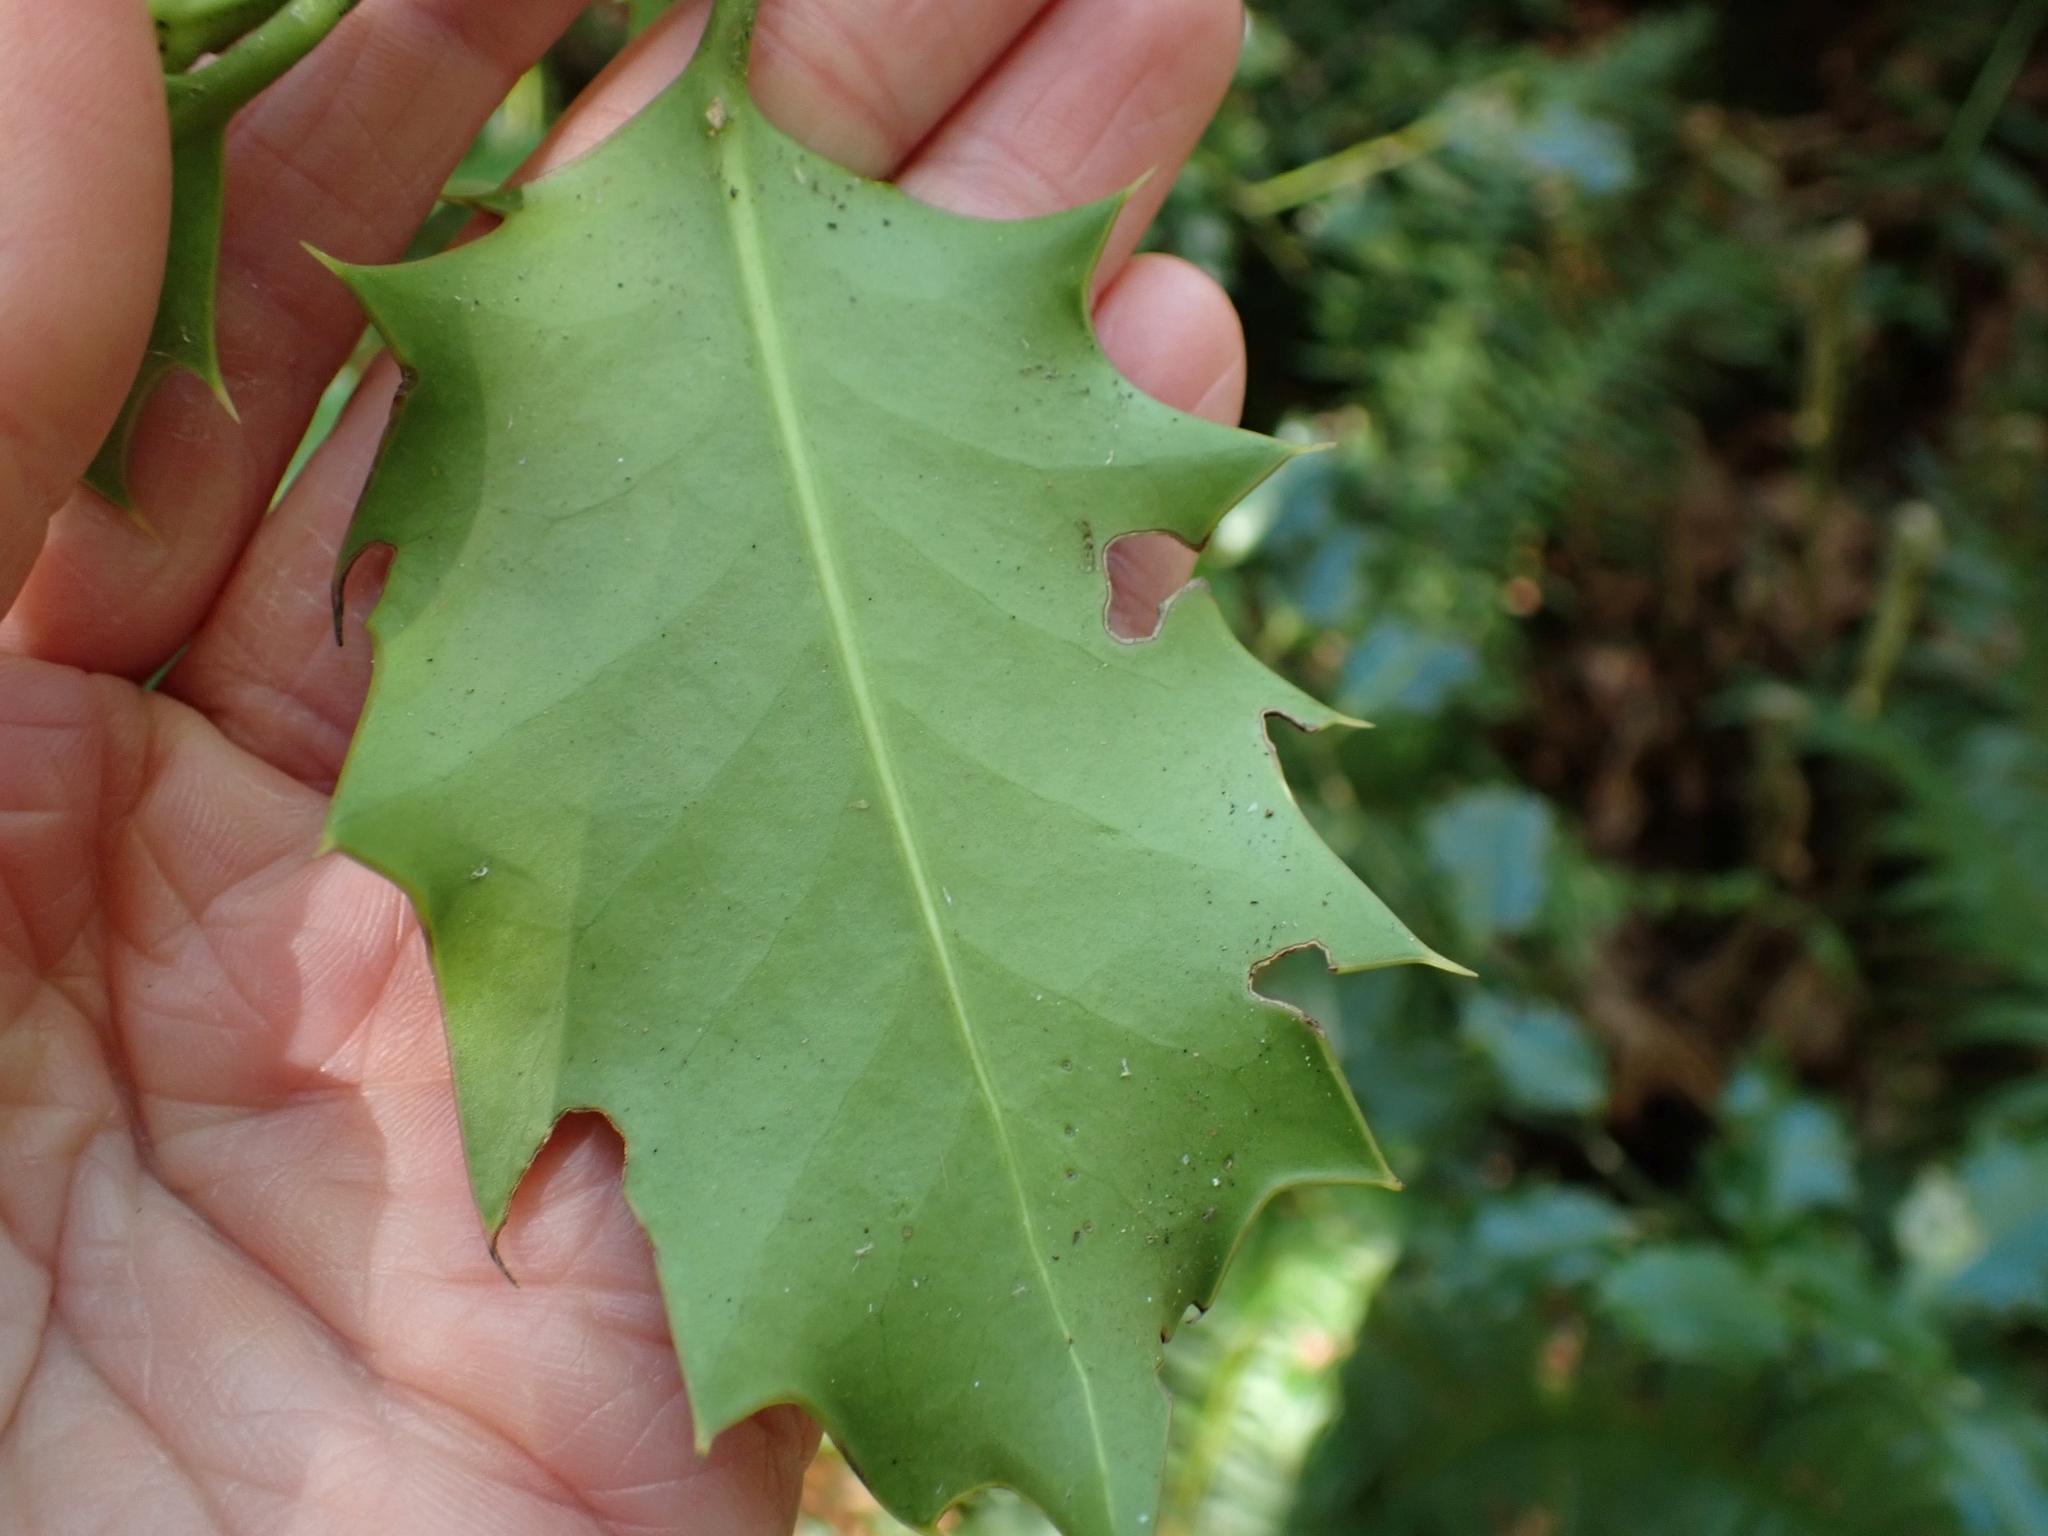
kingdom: Plantae
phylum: Tracheophyta
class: Magnoliopsida
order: Aquifoliales
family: Aquifoliaceae
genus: Ilex
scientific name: Ilex aquifolium
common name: English holly
